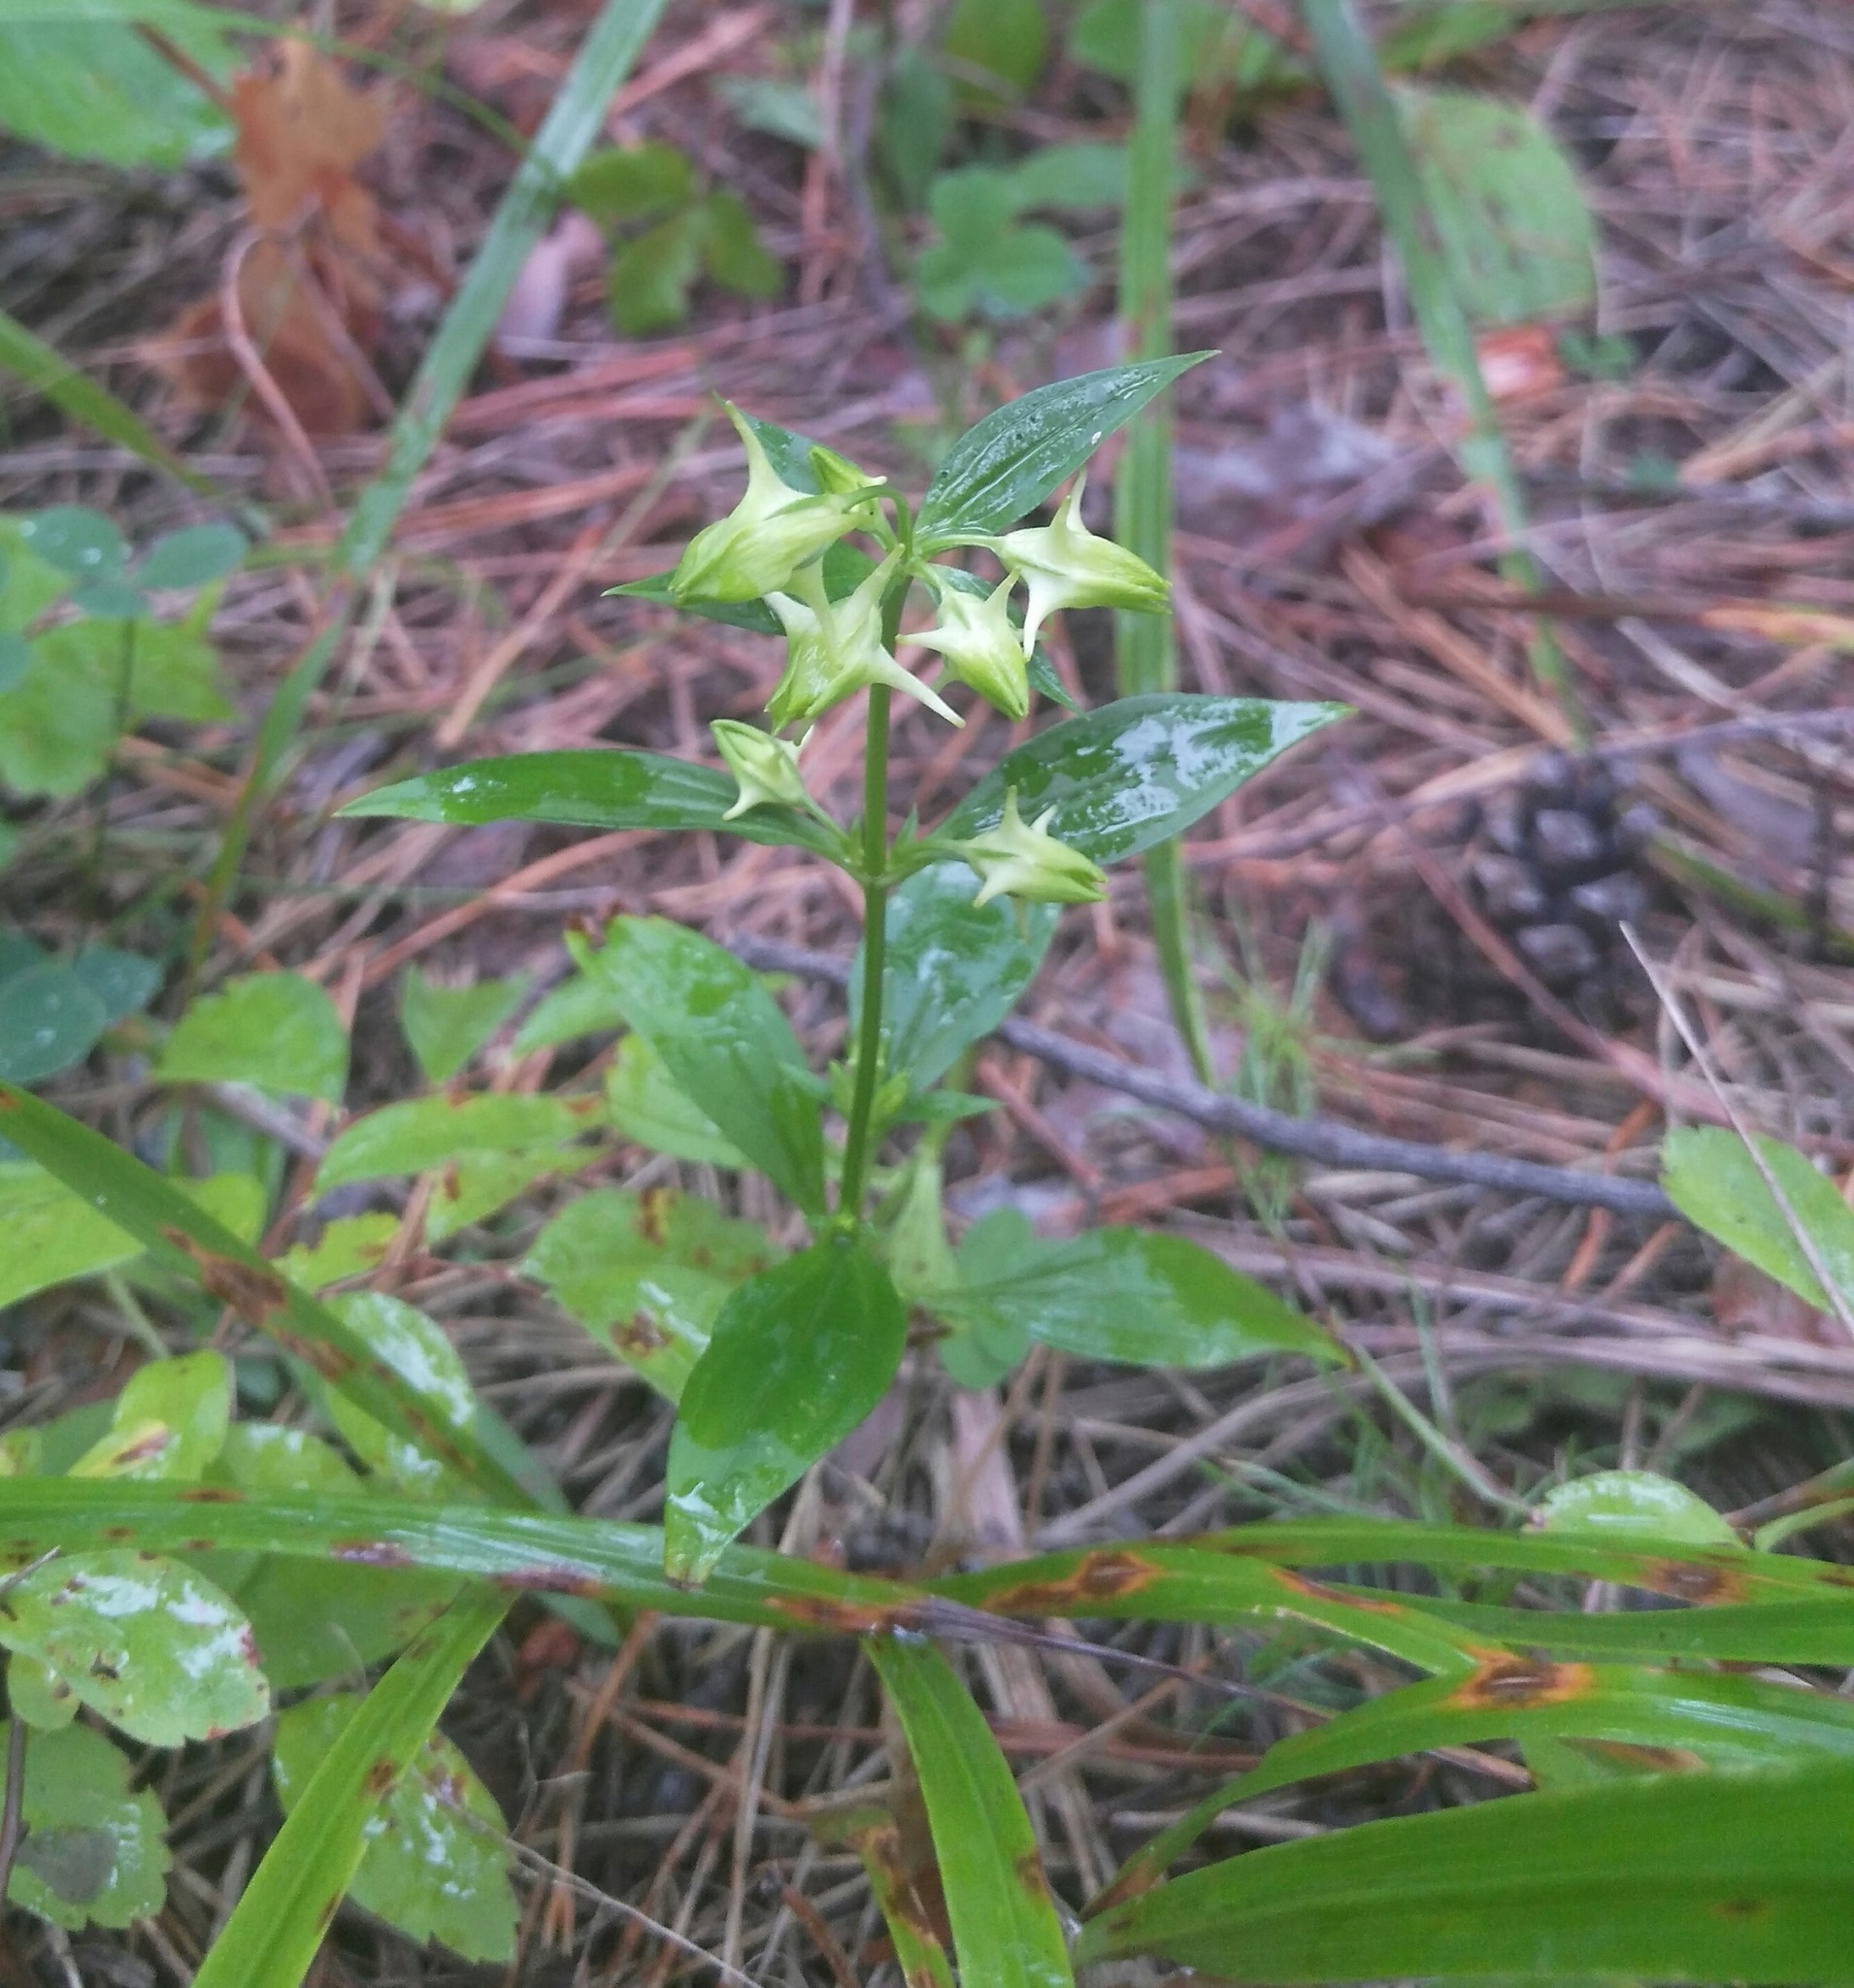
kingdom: Plantae
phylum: Tracheophyta
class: Magnoliopsida
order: Gentianales
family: Gentianaceae
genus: Halenia
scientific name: Halenia corniculata
